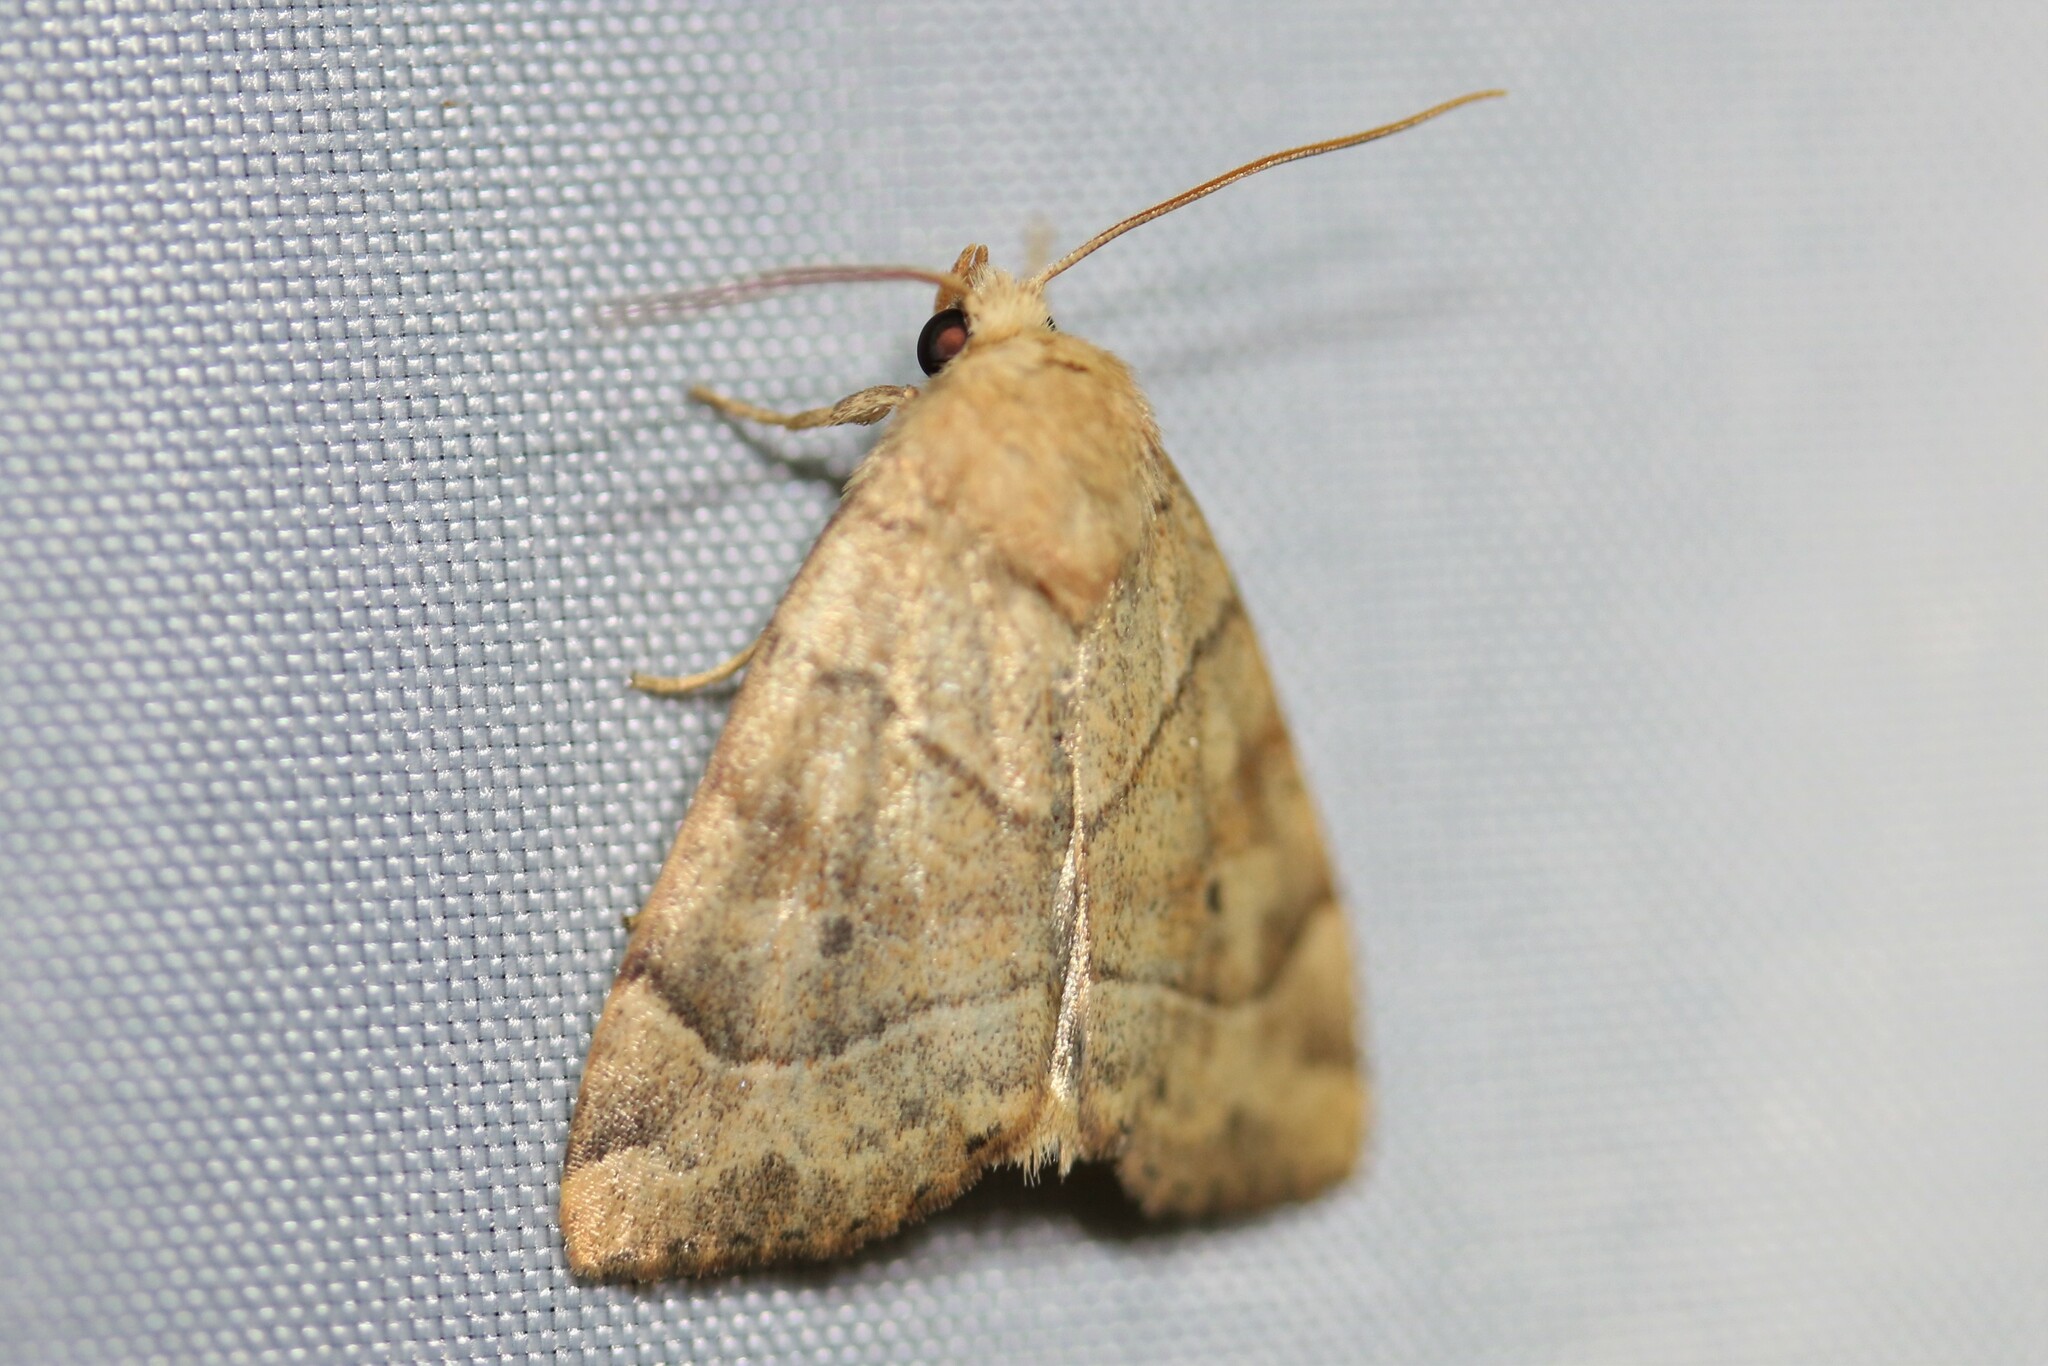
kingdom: Animalia
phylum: Arthropoda
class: Insecta
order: Lepidoptera
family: Noctuidae
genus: Cosmia
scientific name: Cosmia trapezina
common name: Dun-bar
